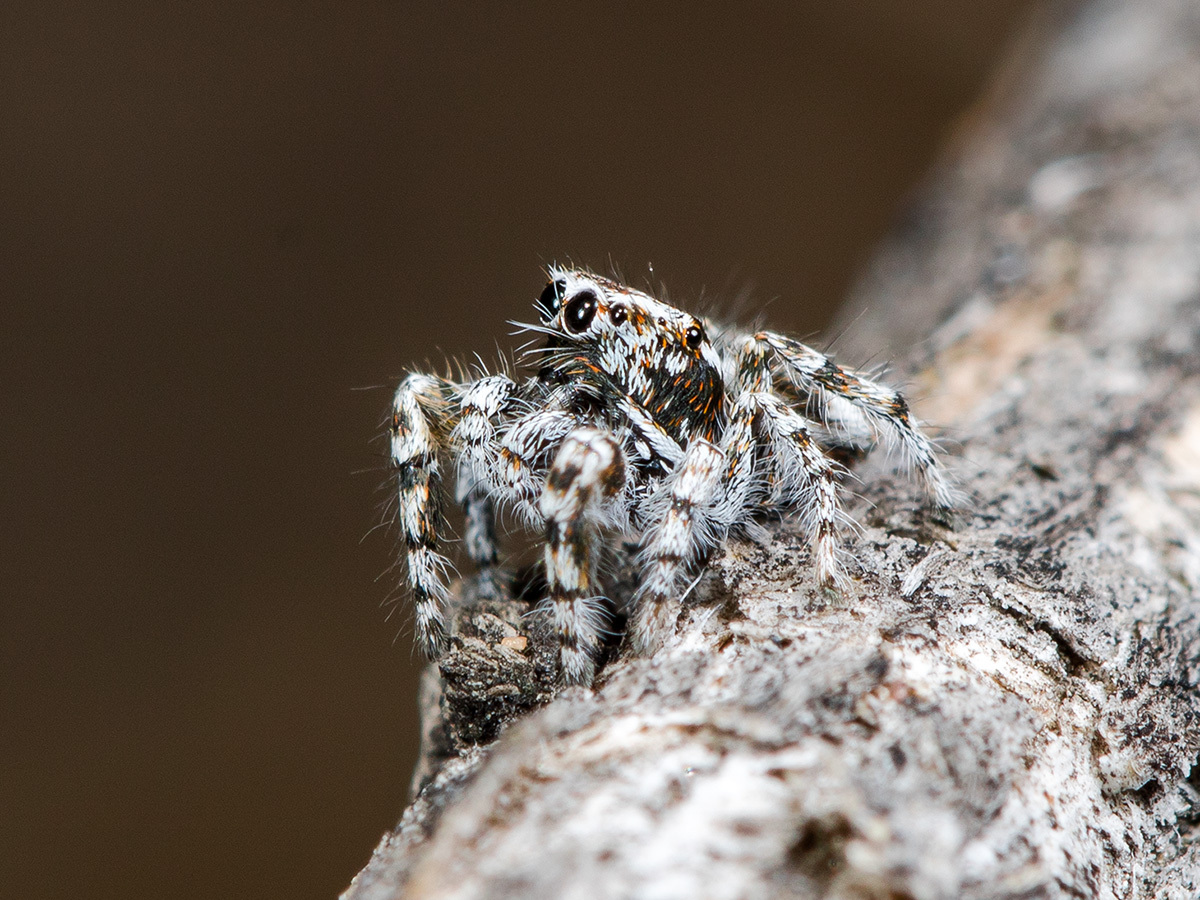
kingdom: Animalia
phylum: Arthropoda
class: Arachnida
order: Araneae
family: Salticidae
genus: Pseudomogrus
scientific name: Pseudomogrus albocinctus
